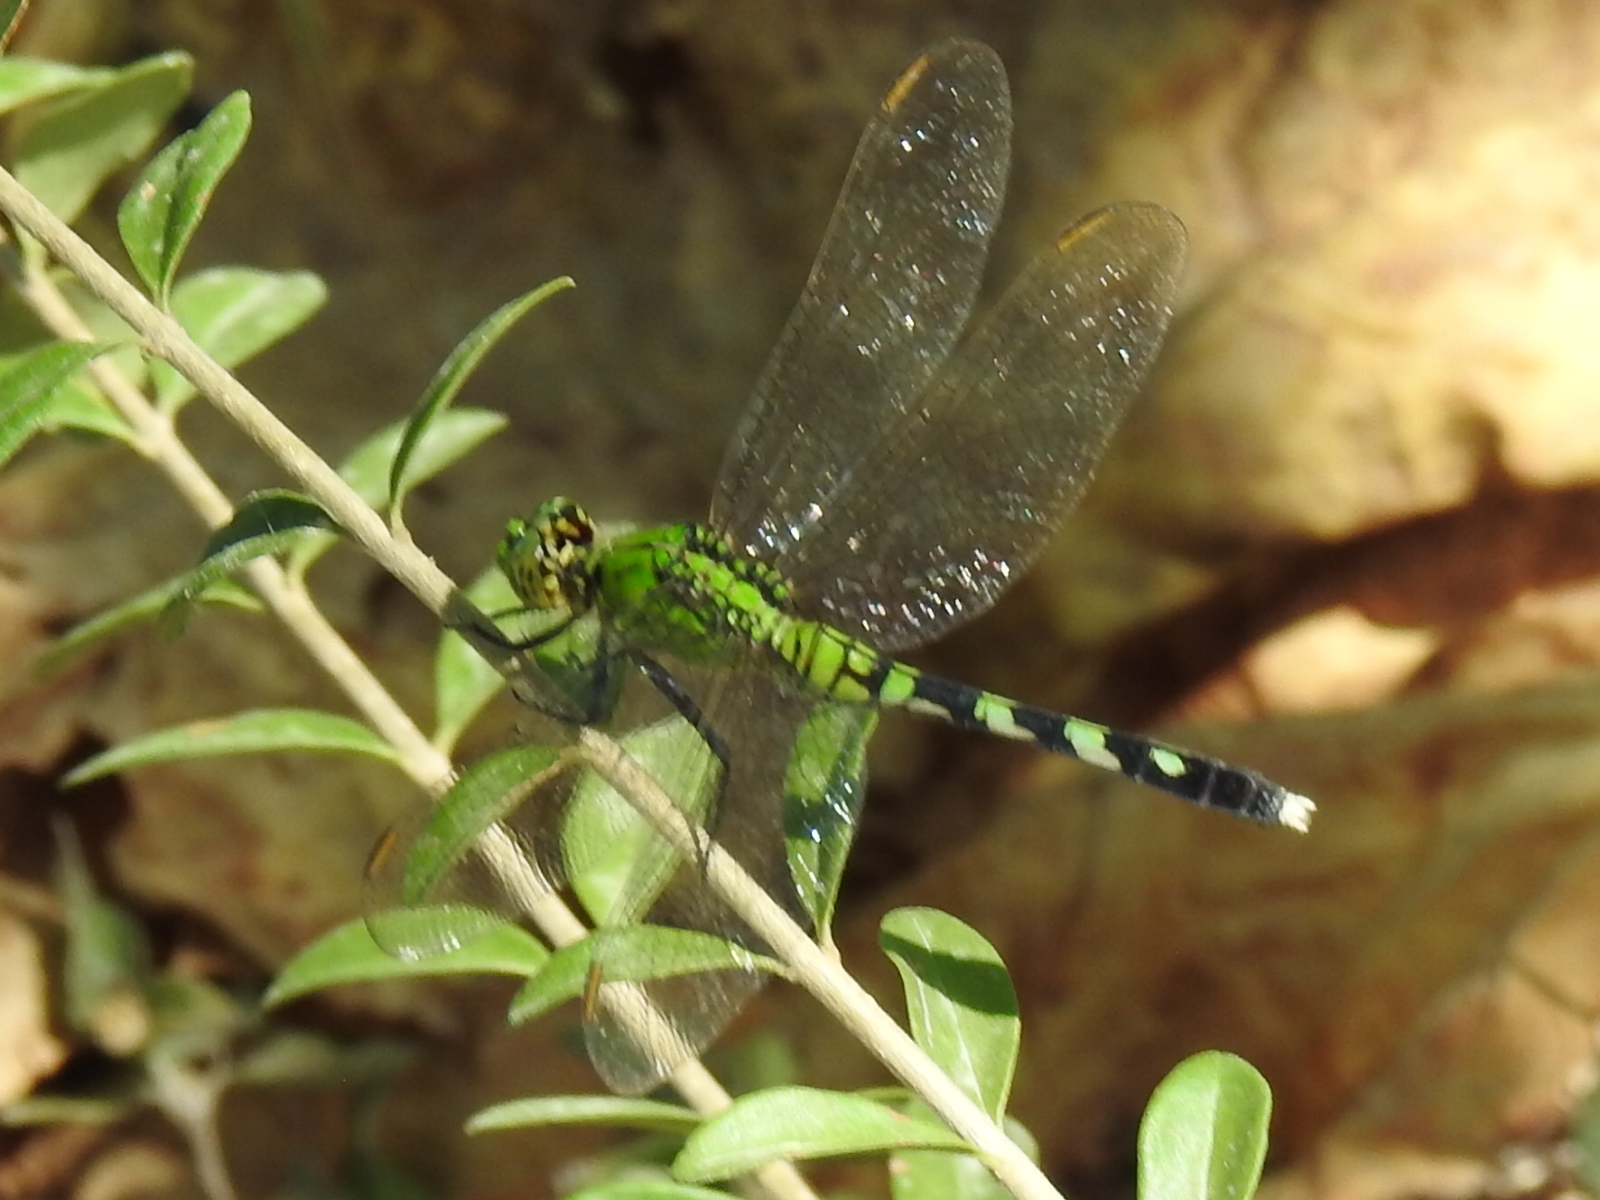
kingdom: Animalia
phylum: Arthropoda
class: Insecta
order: Odonata
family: Libellulidae
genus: Erythemis
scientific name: Erythemis simplicicollis
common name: Eastern pondhawk
